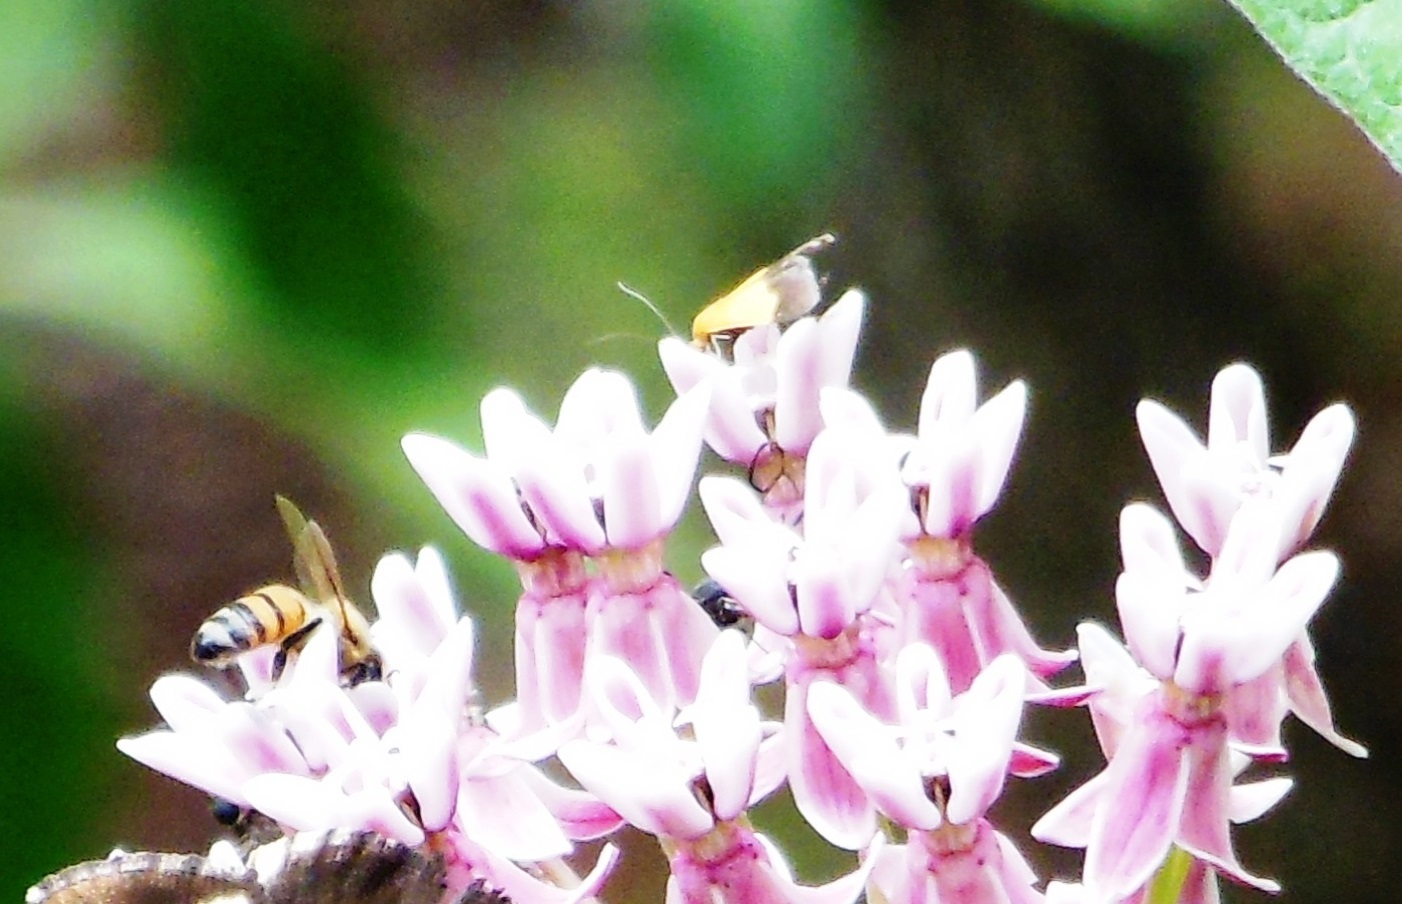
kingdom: Animalia
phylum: Arthropoda
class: Insecta
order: Hymenoptera
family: Apidae
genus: Apis
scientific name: Apis mellifera
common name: Honey bee
